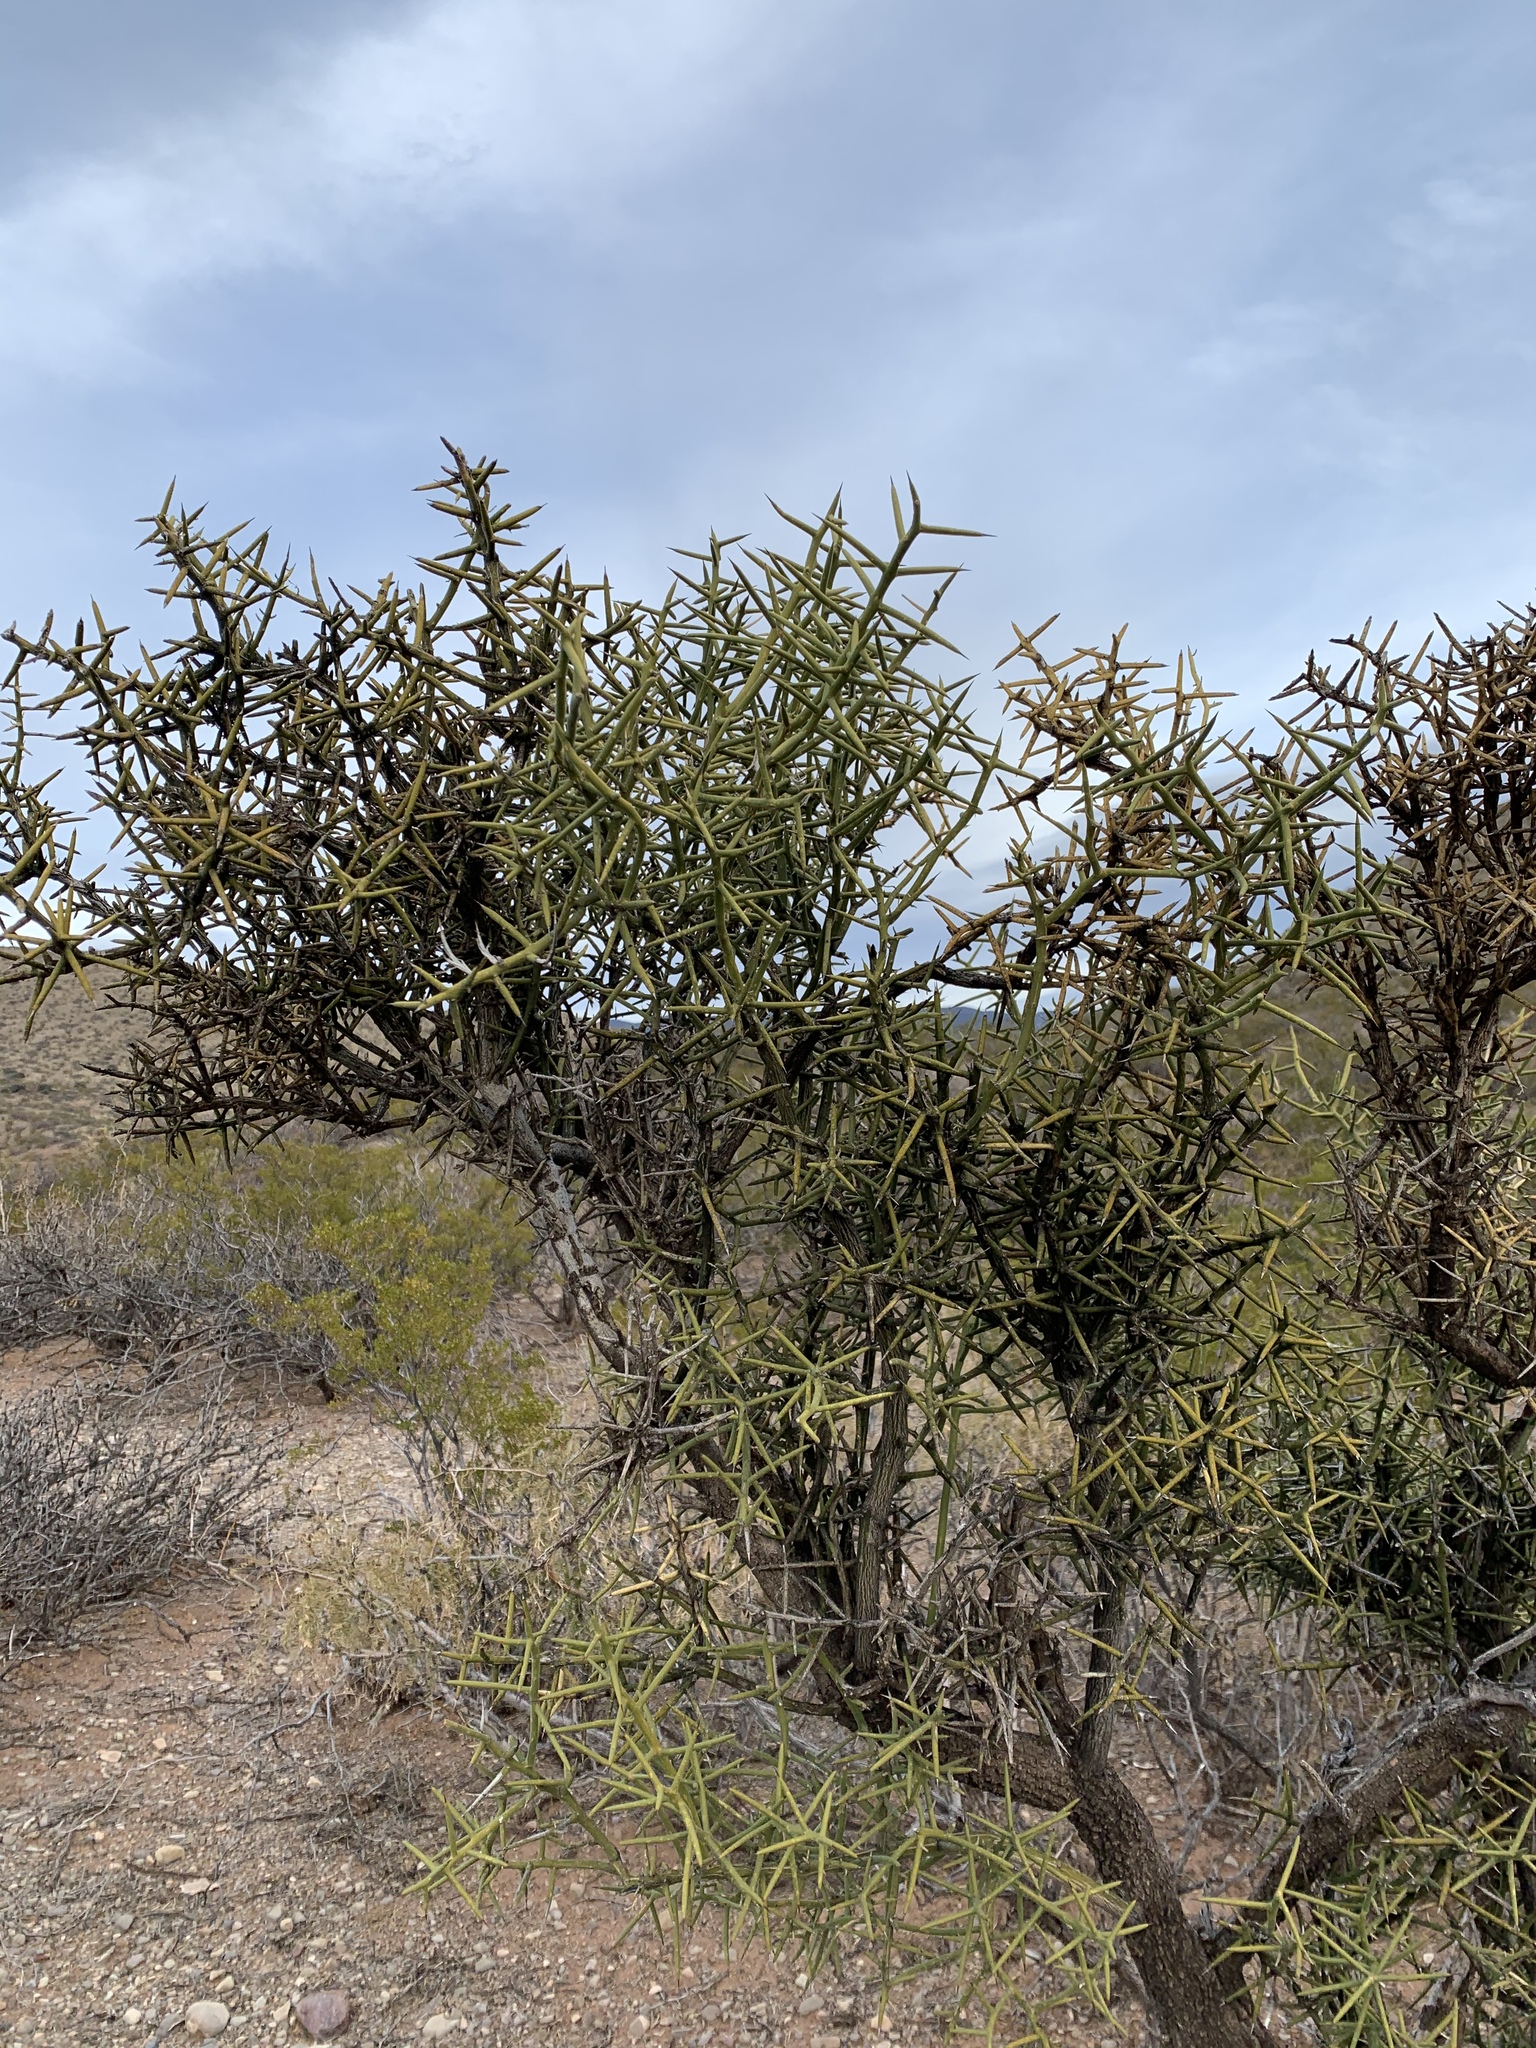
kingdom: Plantae
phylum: Tracheophyta
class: Magnoliopsida
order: Brassicales
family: Koeberliniaceae
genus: Koeberlinia
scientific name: Koeberlinia spinosa
